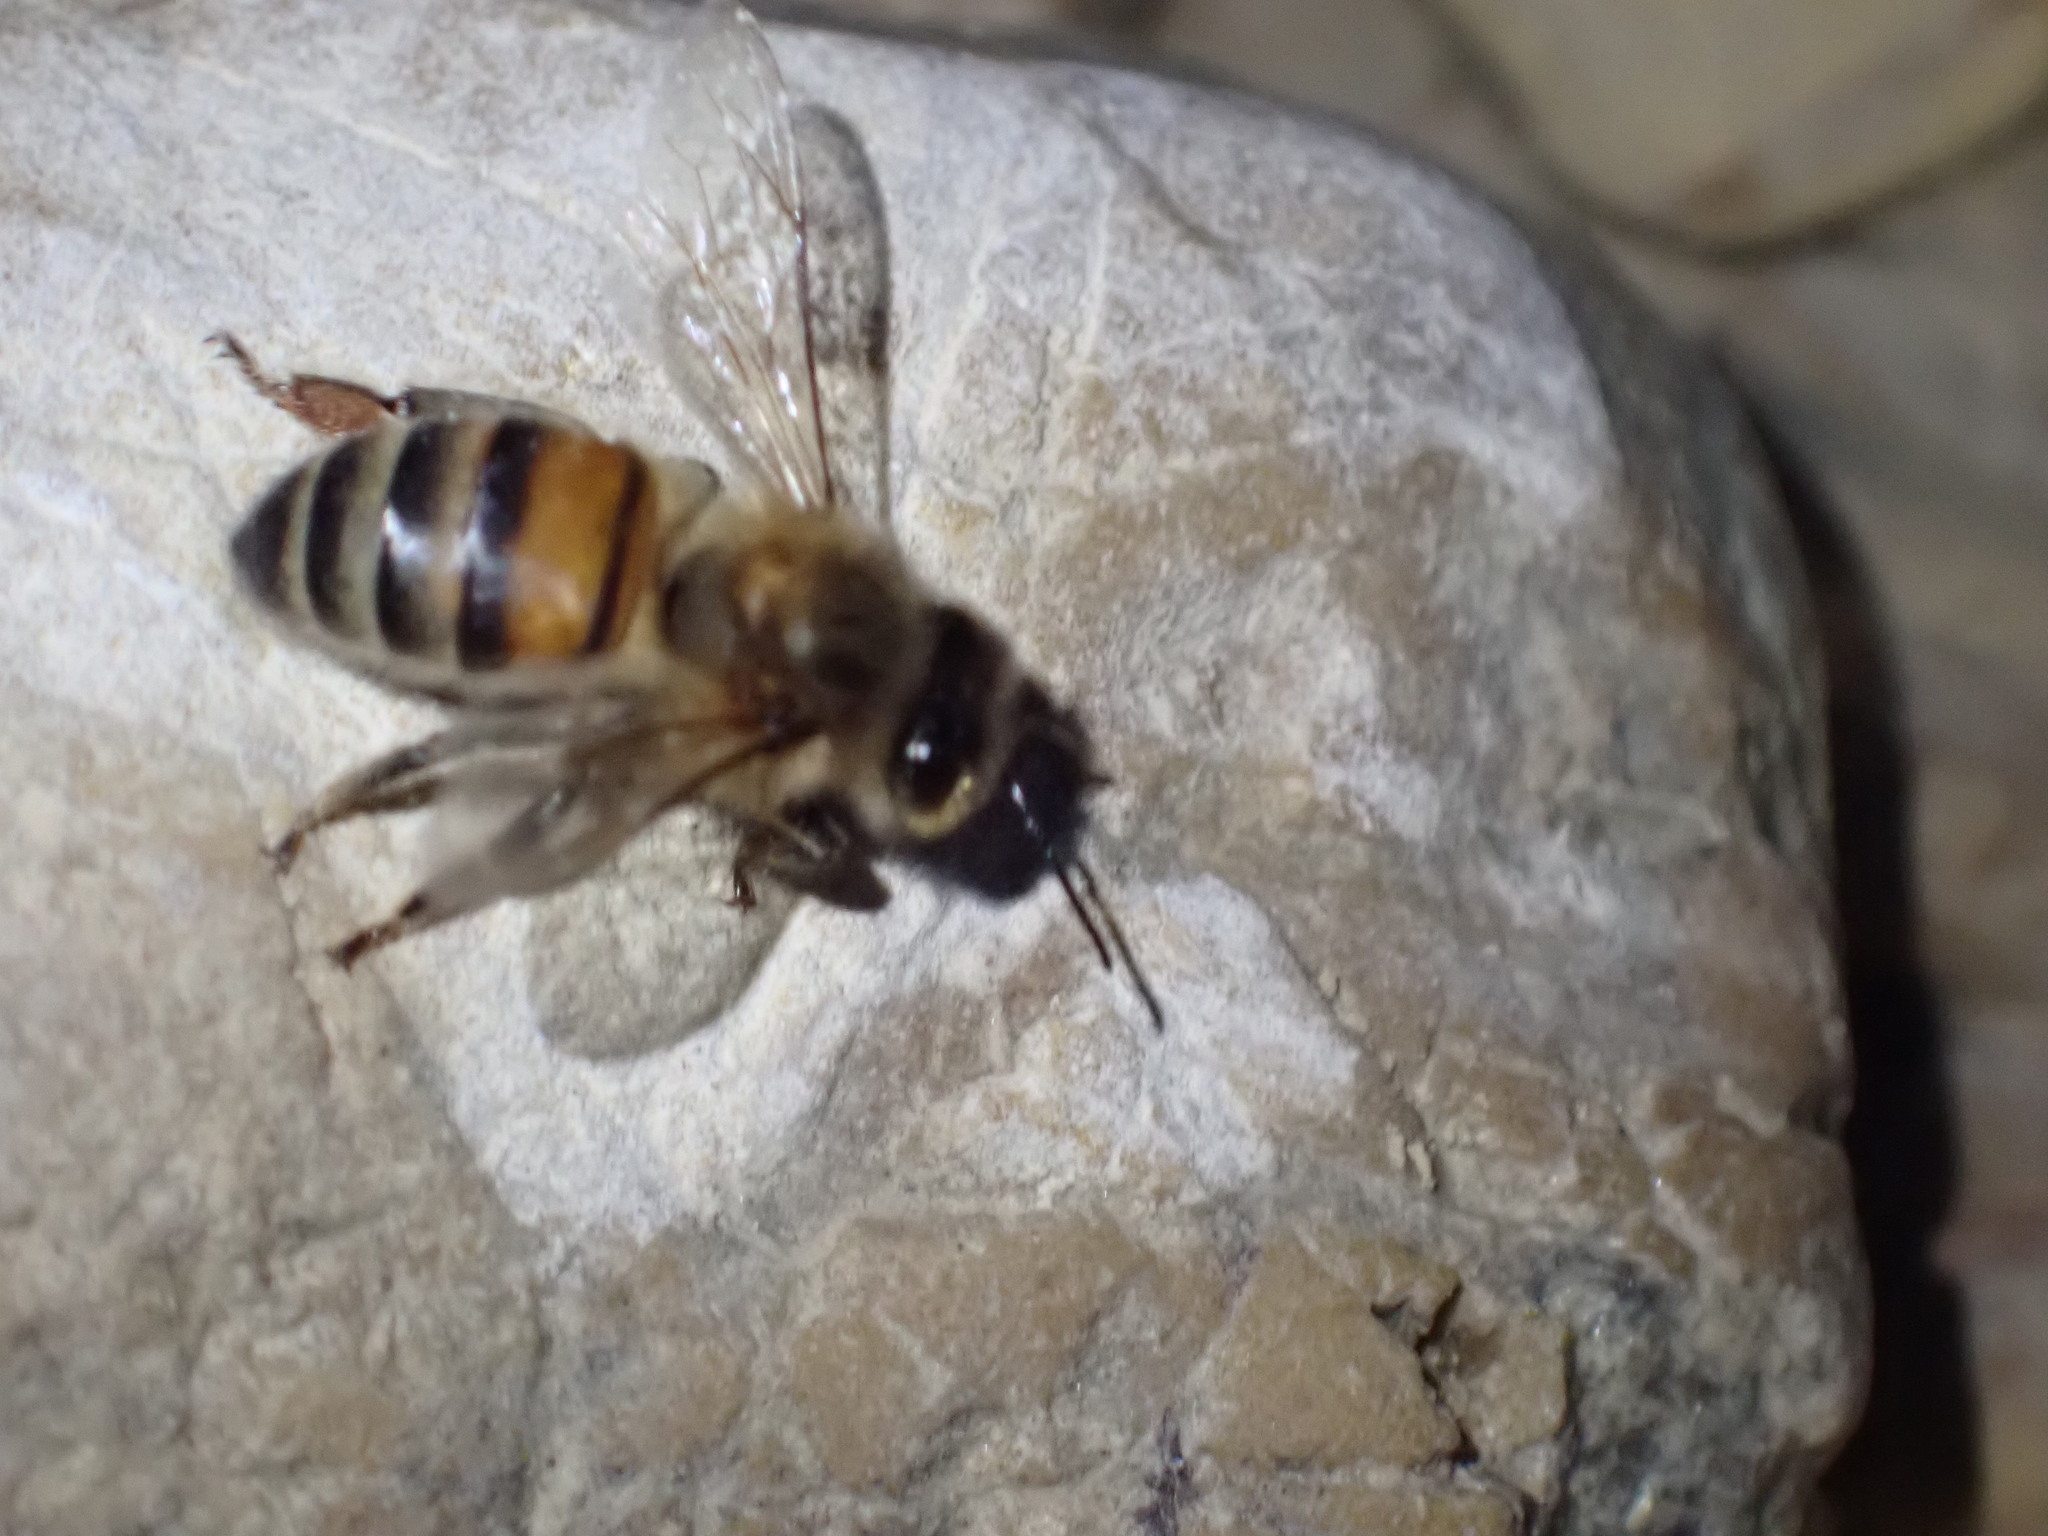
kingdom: Animalia
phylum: Arthropoda
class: Insecta
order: Hymenoptera
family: Apidae
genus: Apis
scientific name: Apis mellifera
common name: Honey bee
